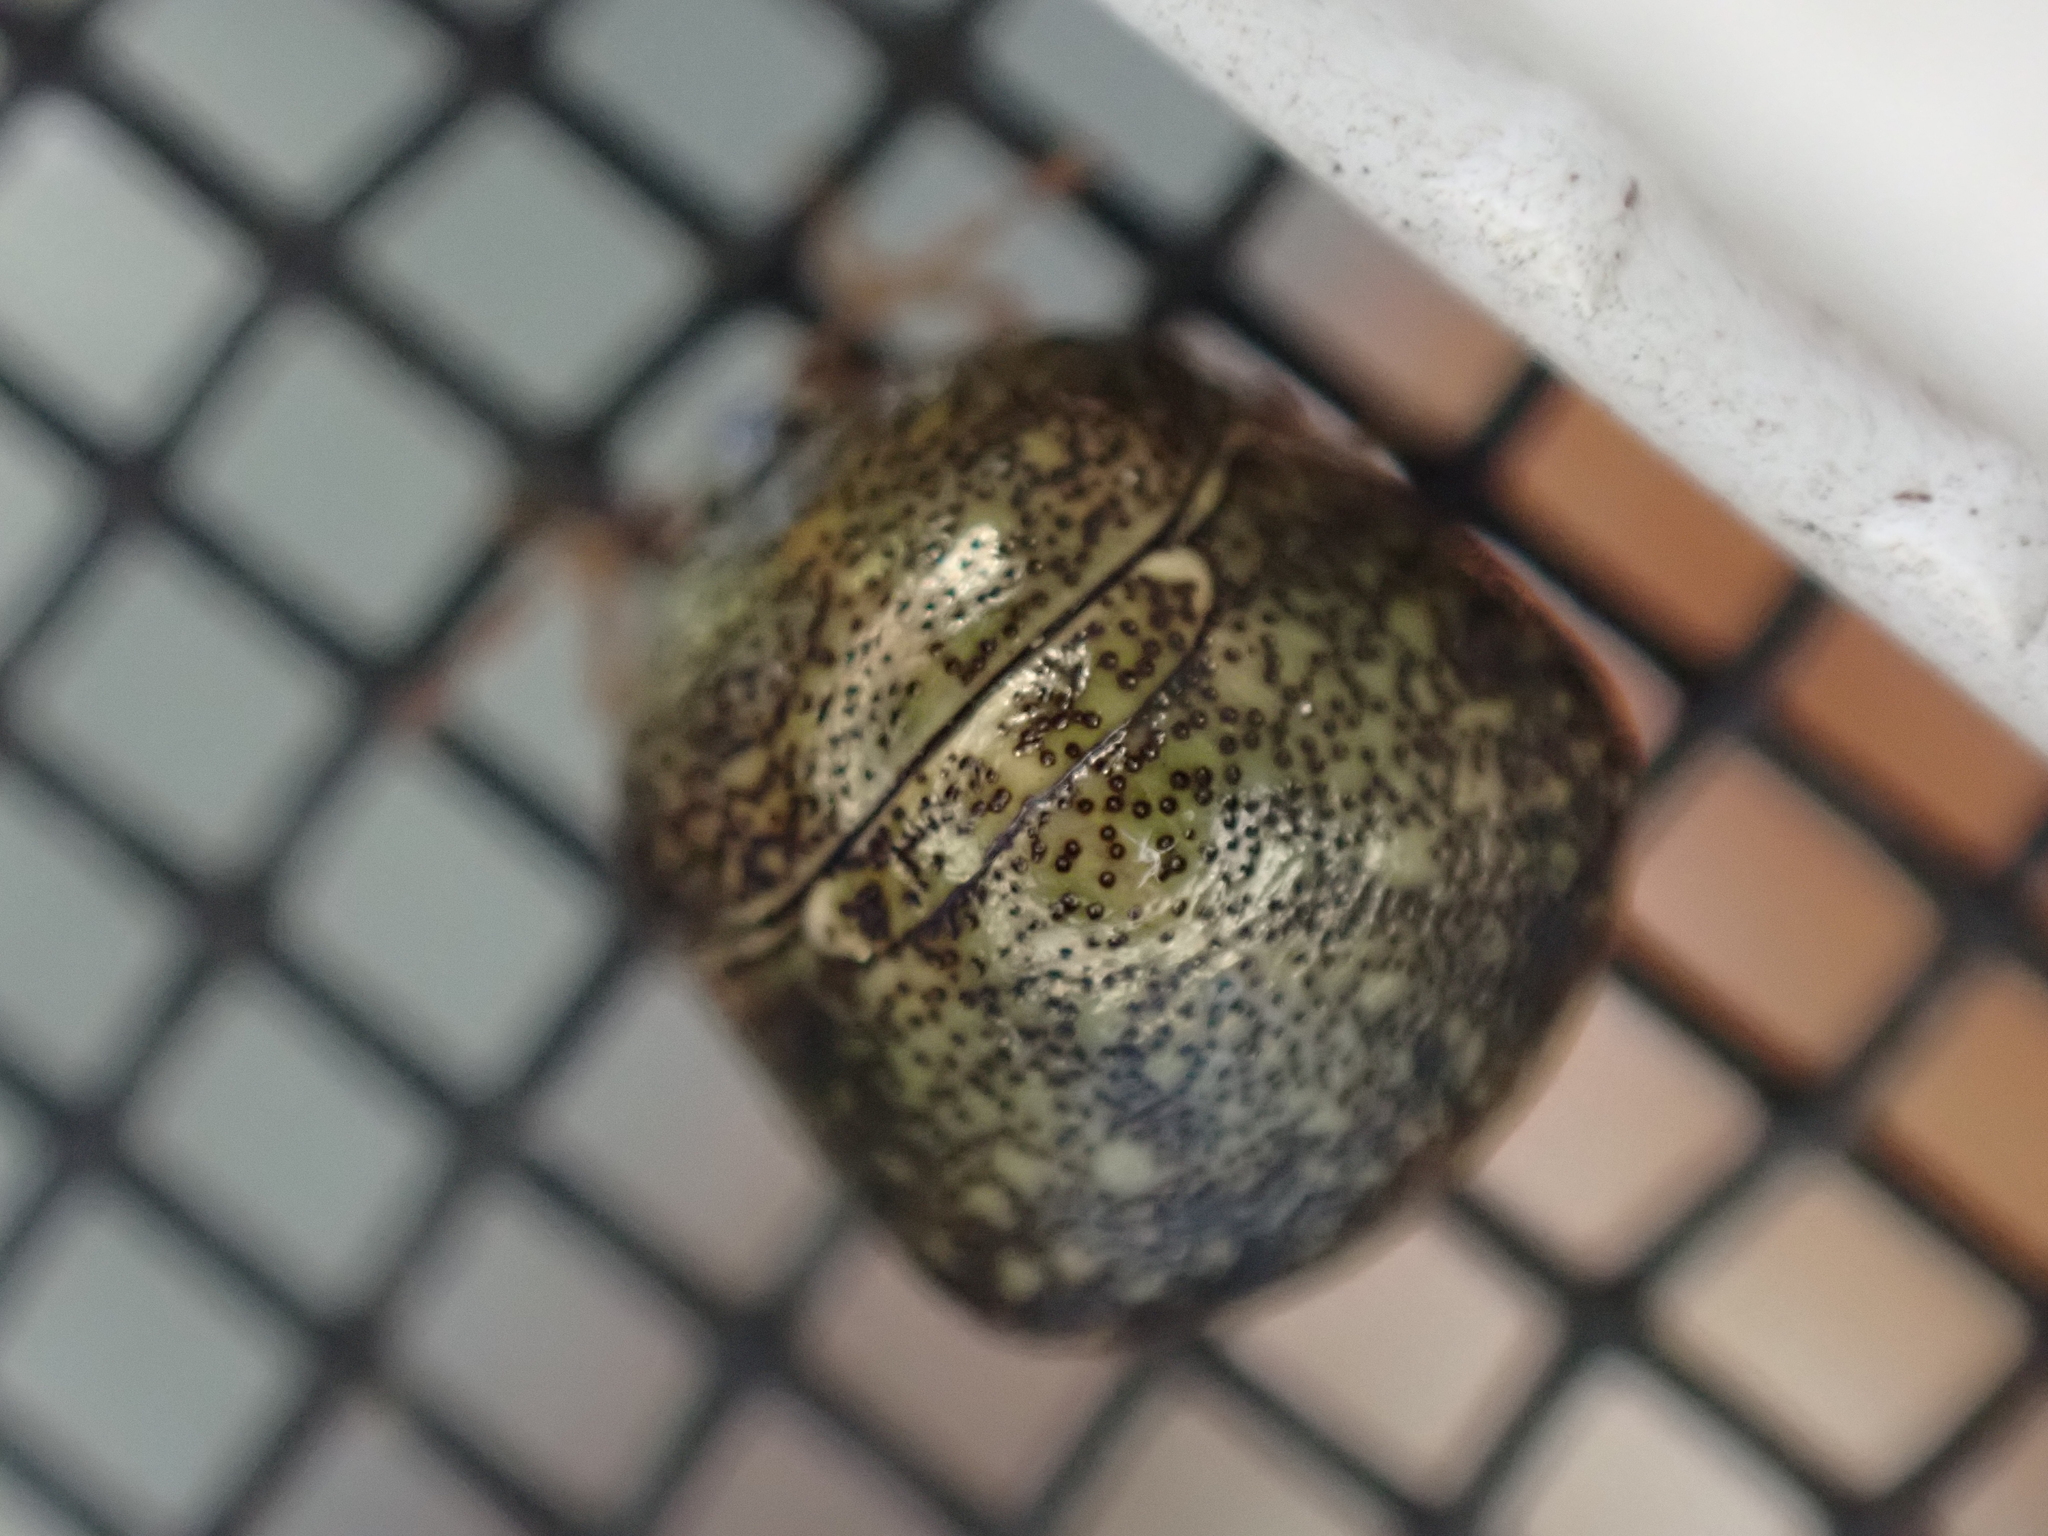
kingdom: Animalia
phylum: Arthropoda
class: Insecta
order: Hemiptera
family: Plataspidae
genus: Megacopta
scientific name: Megacopta cribraria
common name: Bean plataspid
